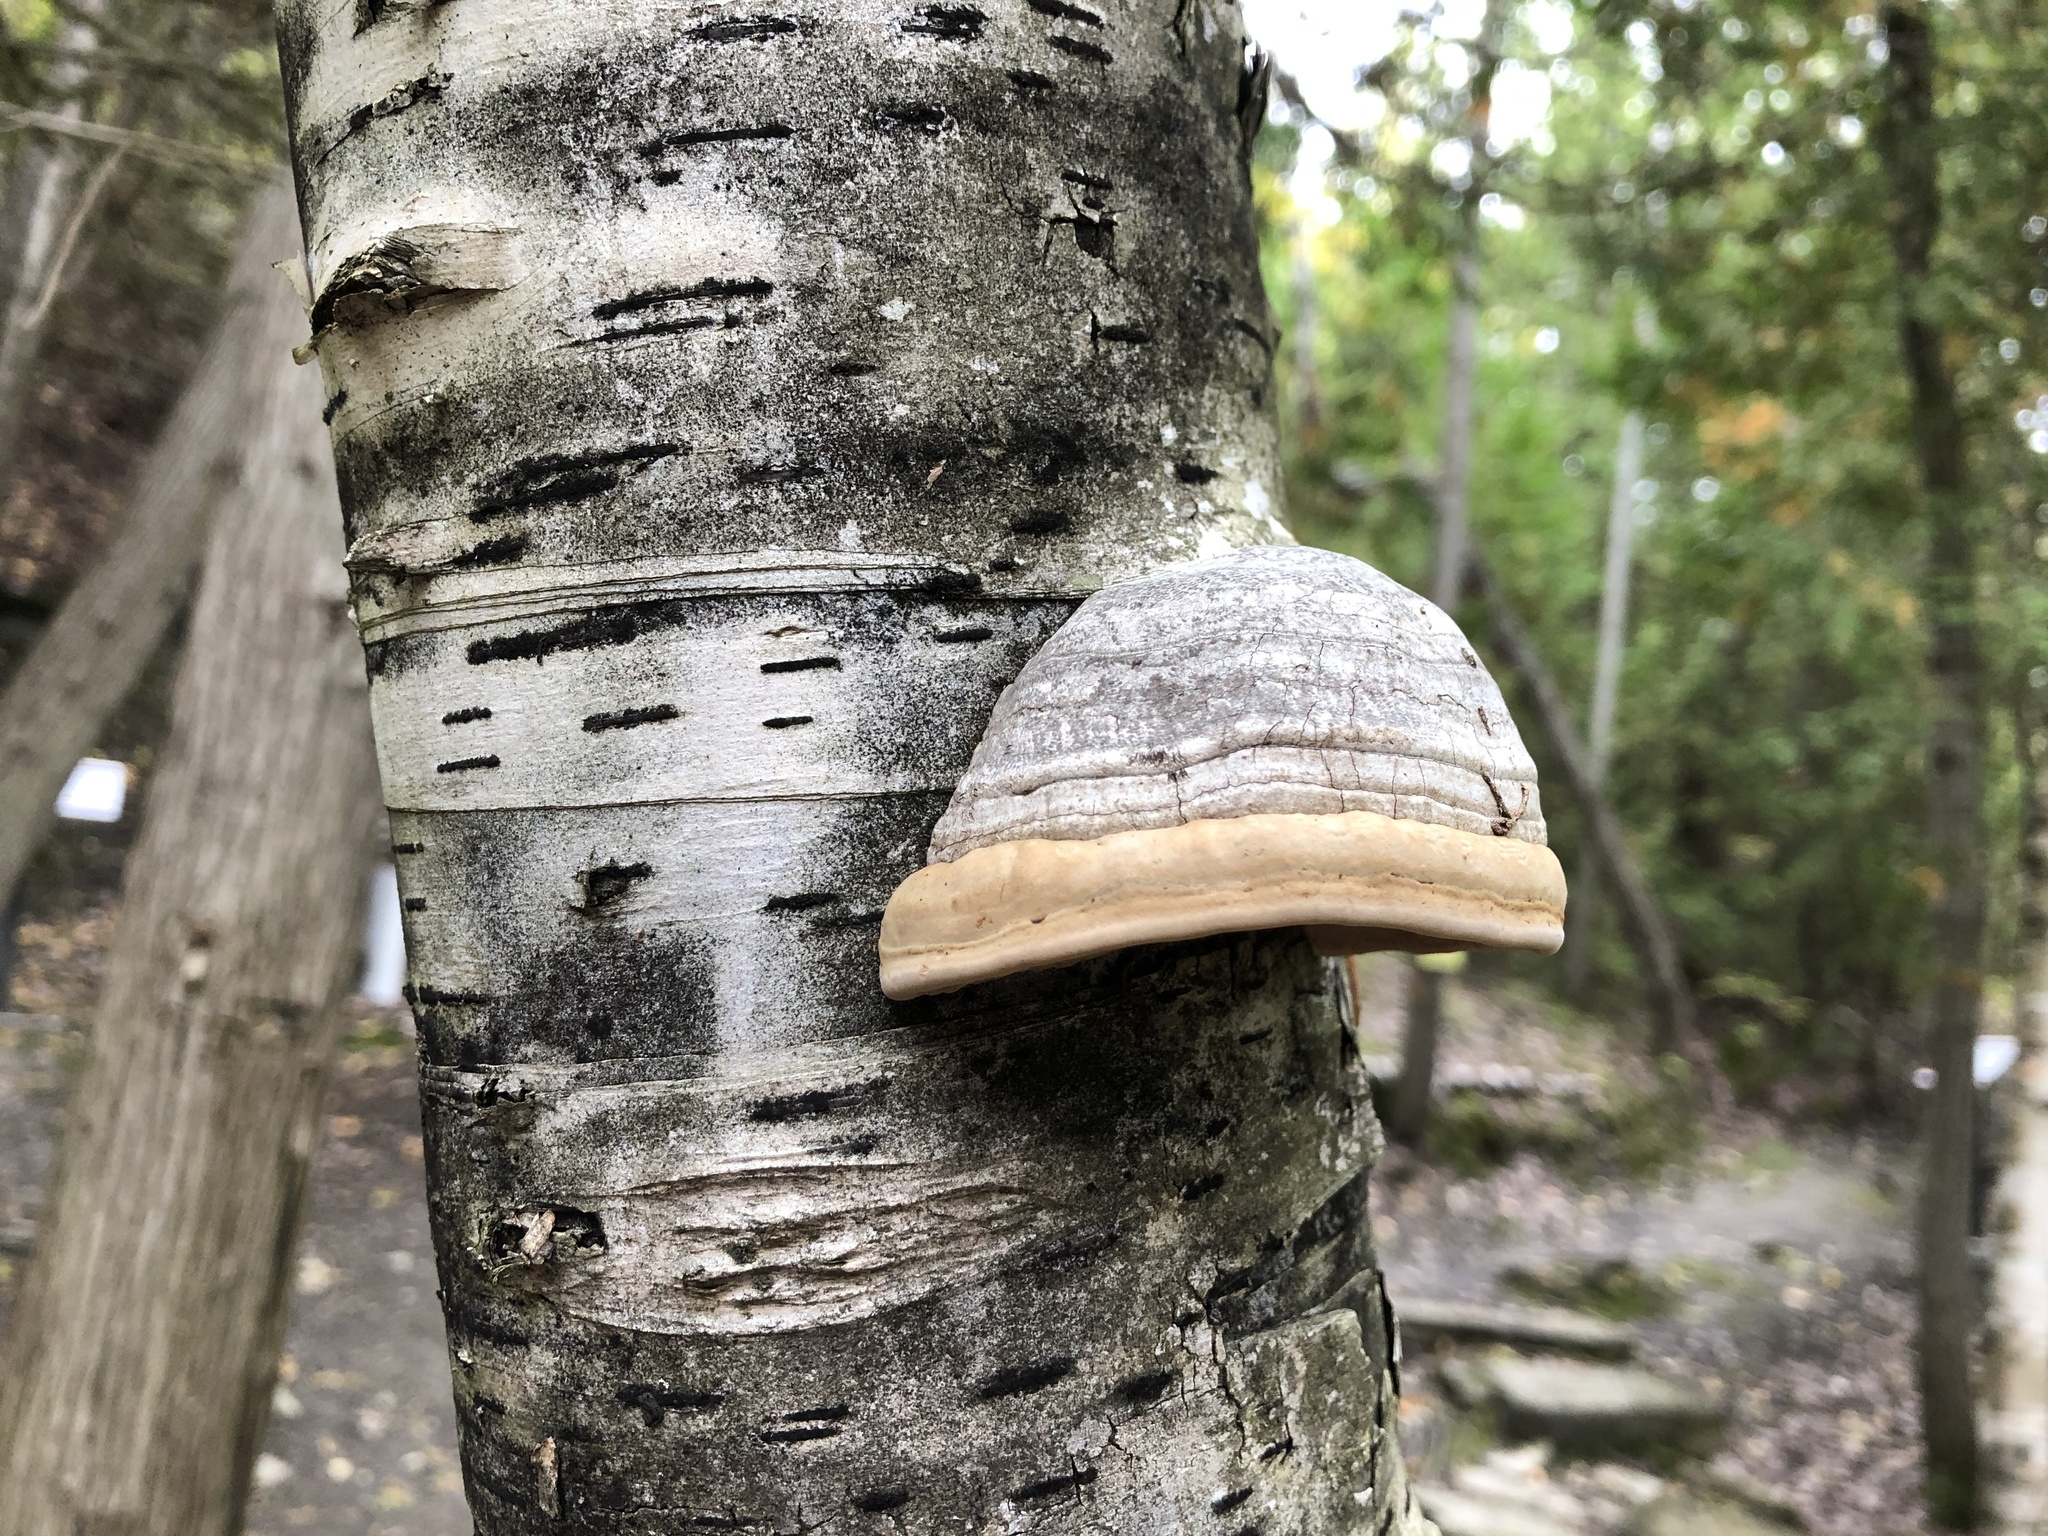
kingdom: Fungi
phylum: Basidiomycota
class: Agaricomycetes
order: Polyporales
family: Polyporaceae
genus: Fomes
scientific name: Fomes fomentarius
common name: Hoof fungus
